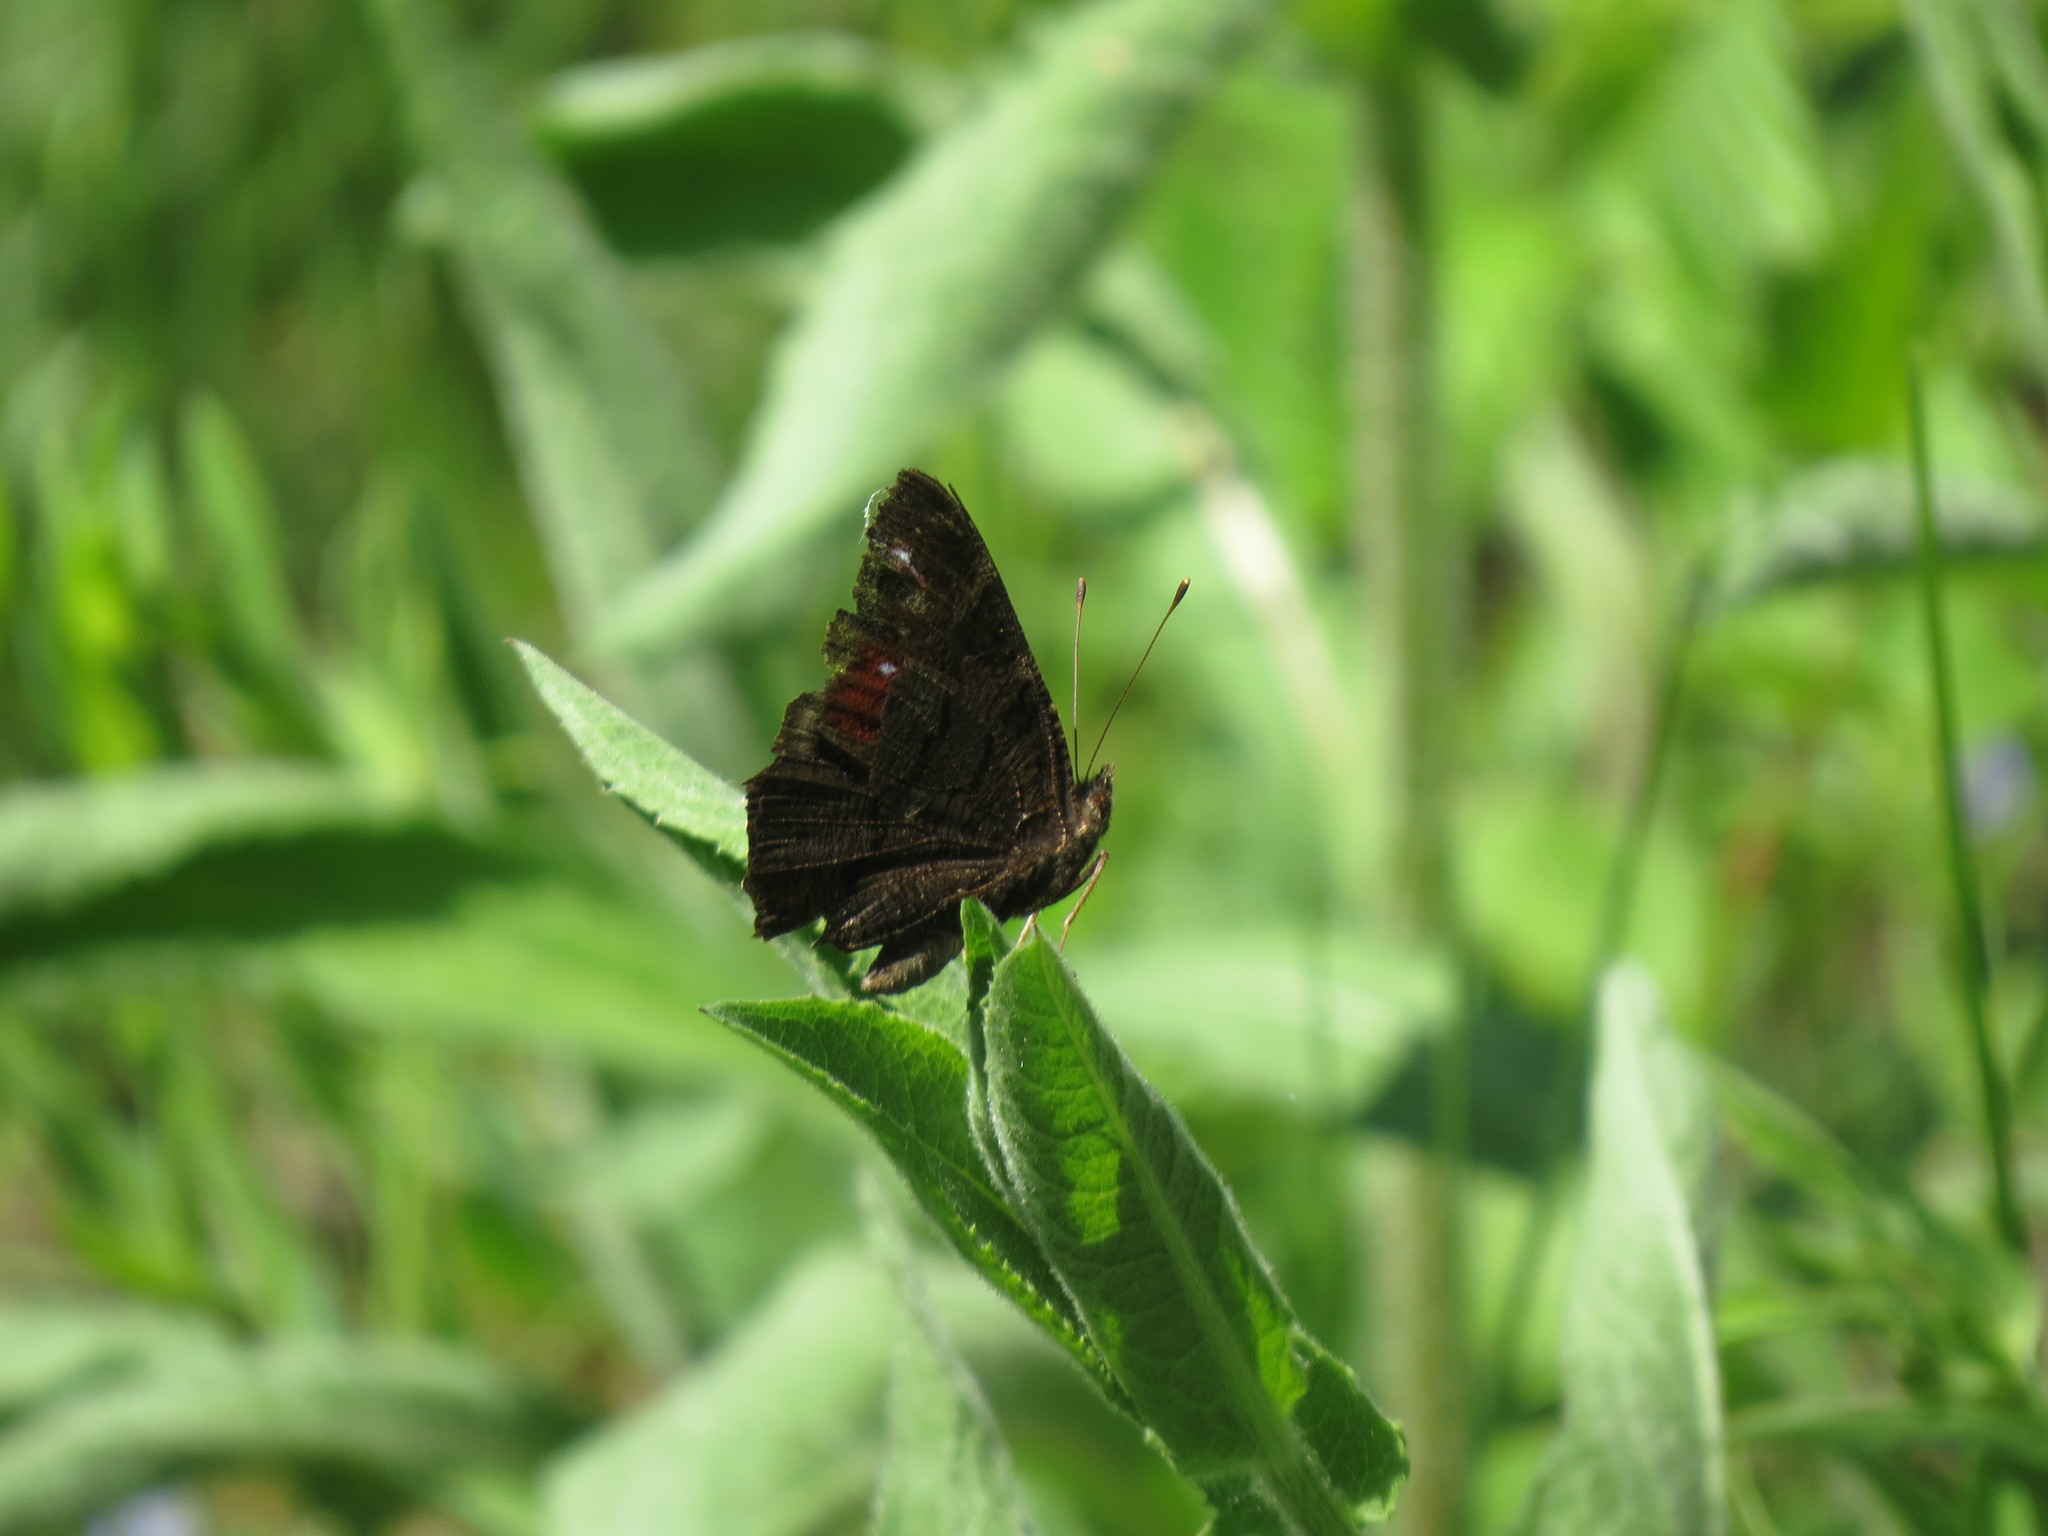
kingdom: Animalia
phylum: Arthropoda
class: Insecta
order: Lepidoptera
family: Nymphalidae
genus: Aglais
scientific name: Aglais io
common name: Peacock
